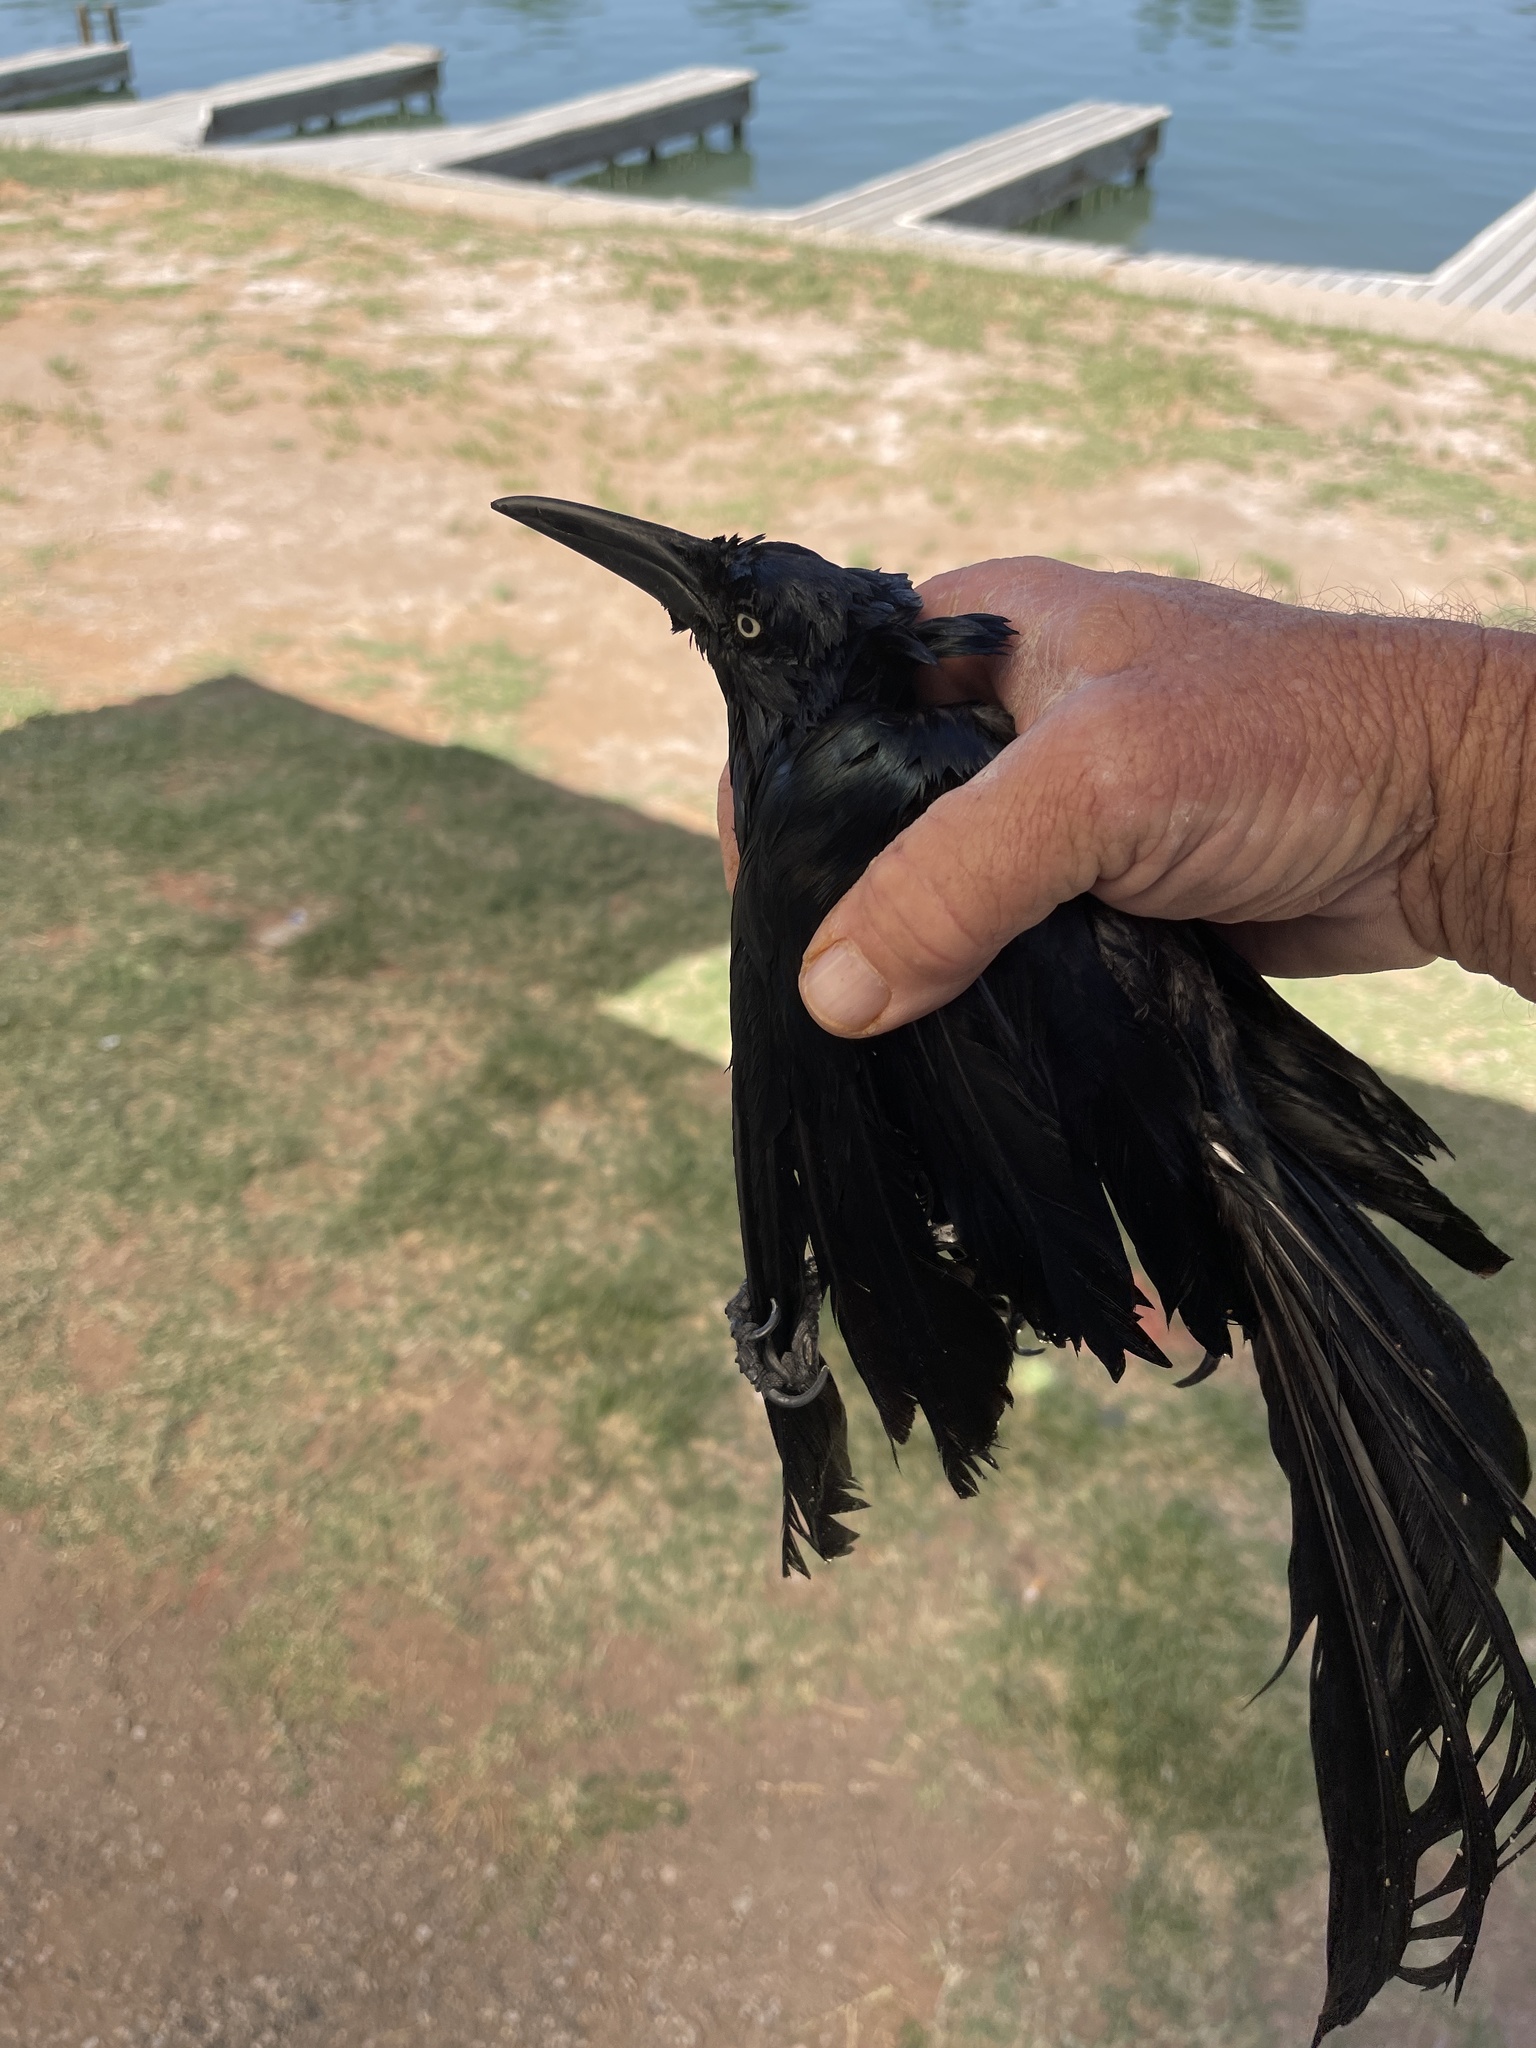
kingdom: Animalia
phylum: Chordata
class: Aves
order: Passeriformes
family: Icteridae
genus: Quiscalus
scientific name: Quiscalus mexicanus
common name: Great-tailed grackle
